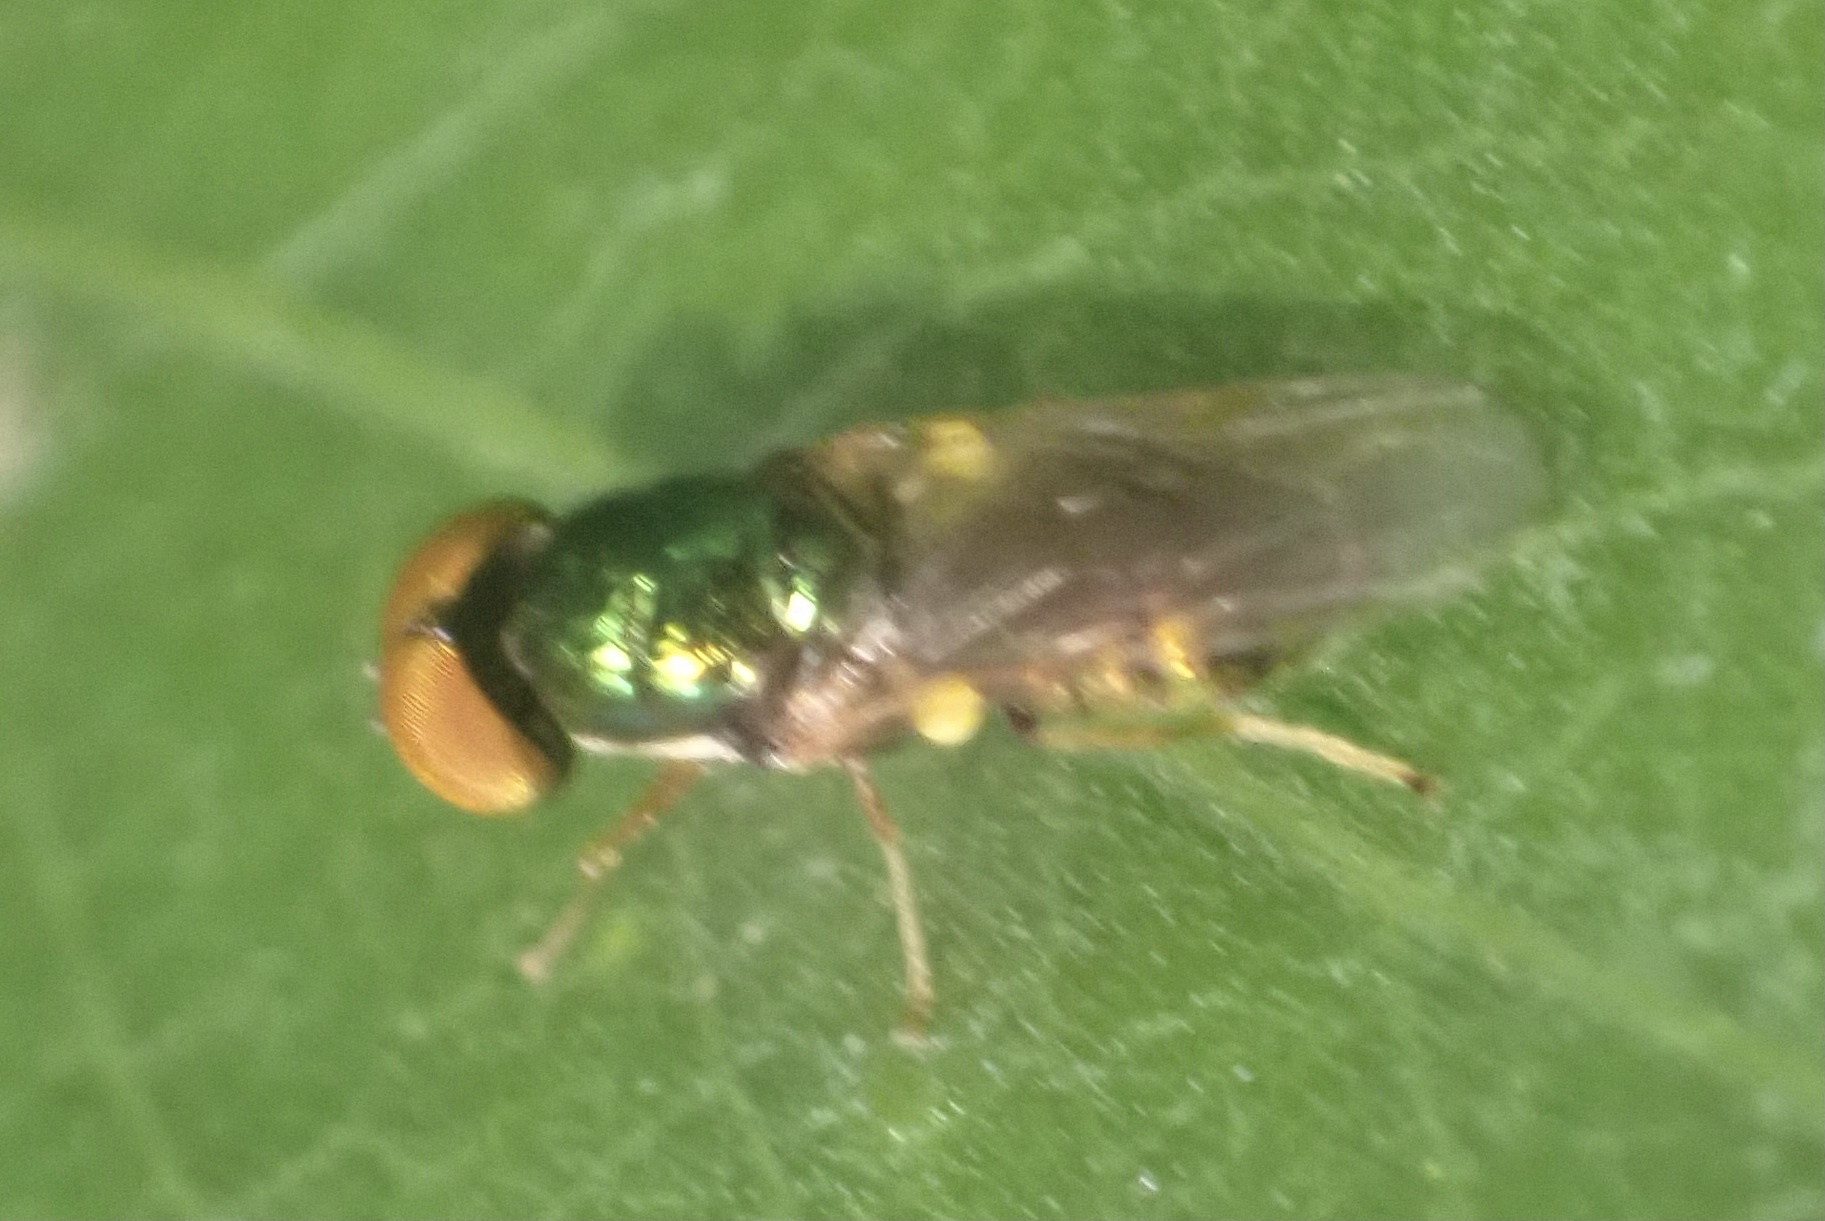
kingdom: Animalia
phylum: Arthropoda
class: Insecta
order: Diptera
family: Stratiomyidae
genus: Microchrysa
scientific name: Microchrysa flavicornis
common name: Soldier fly
